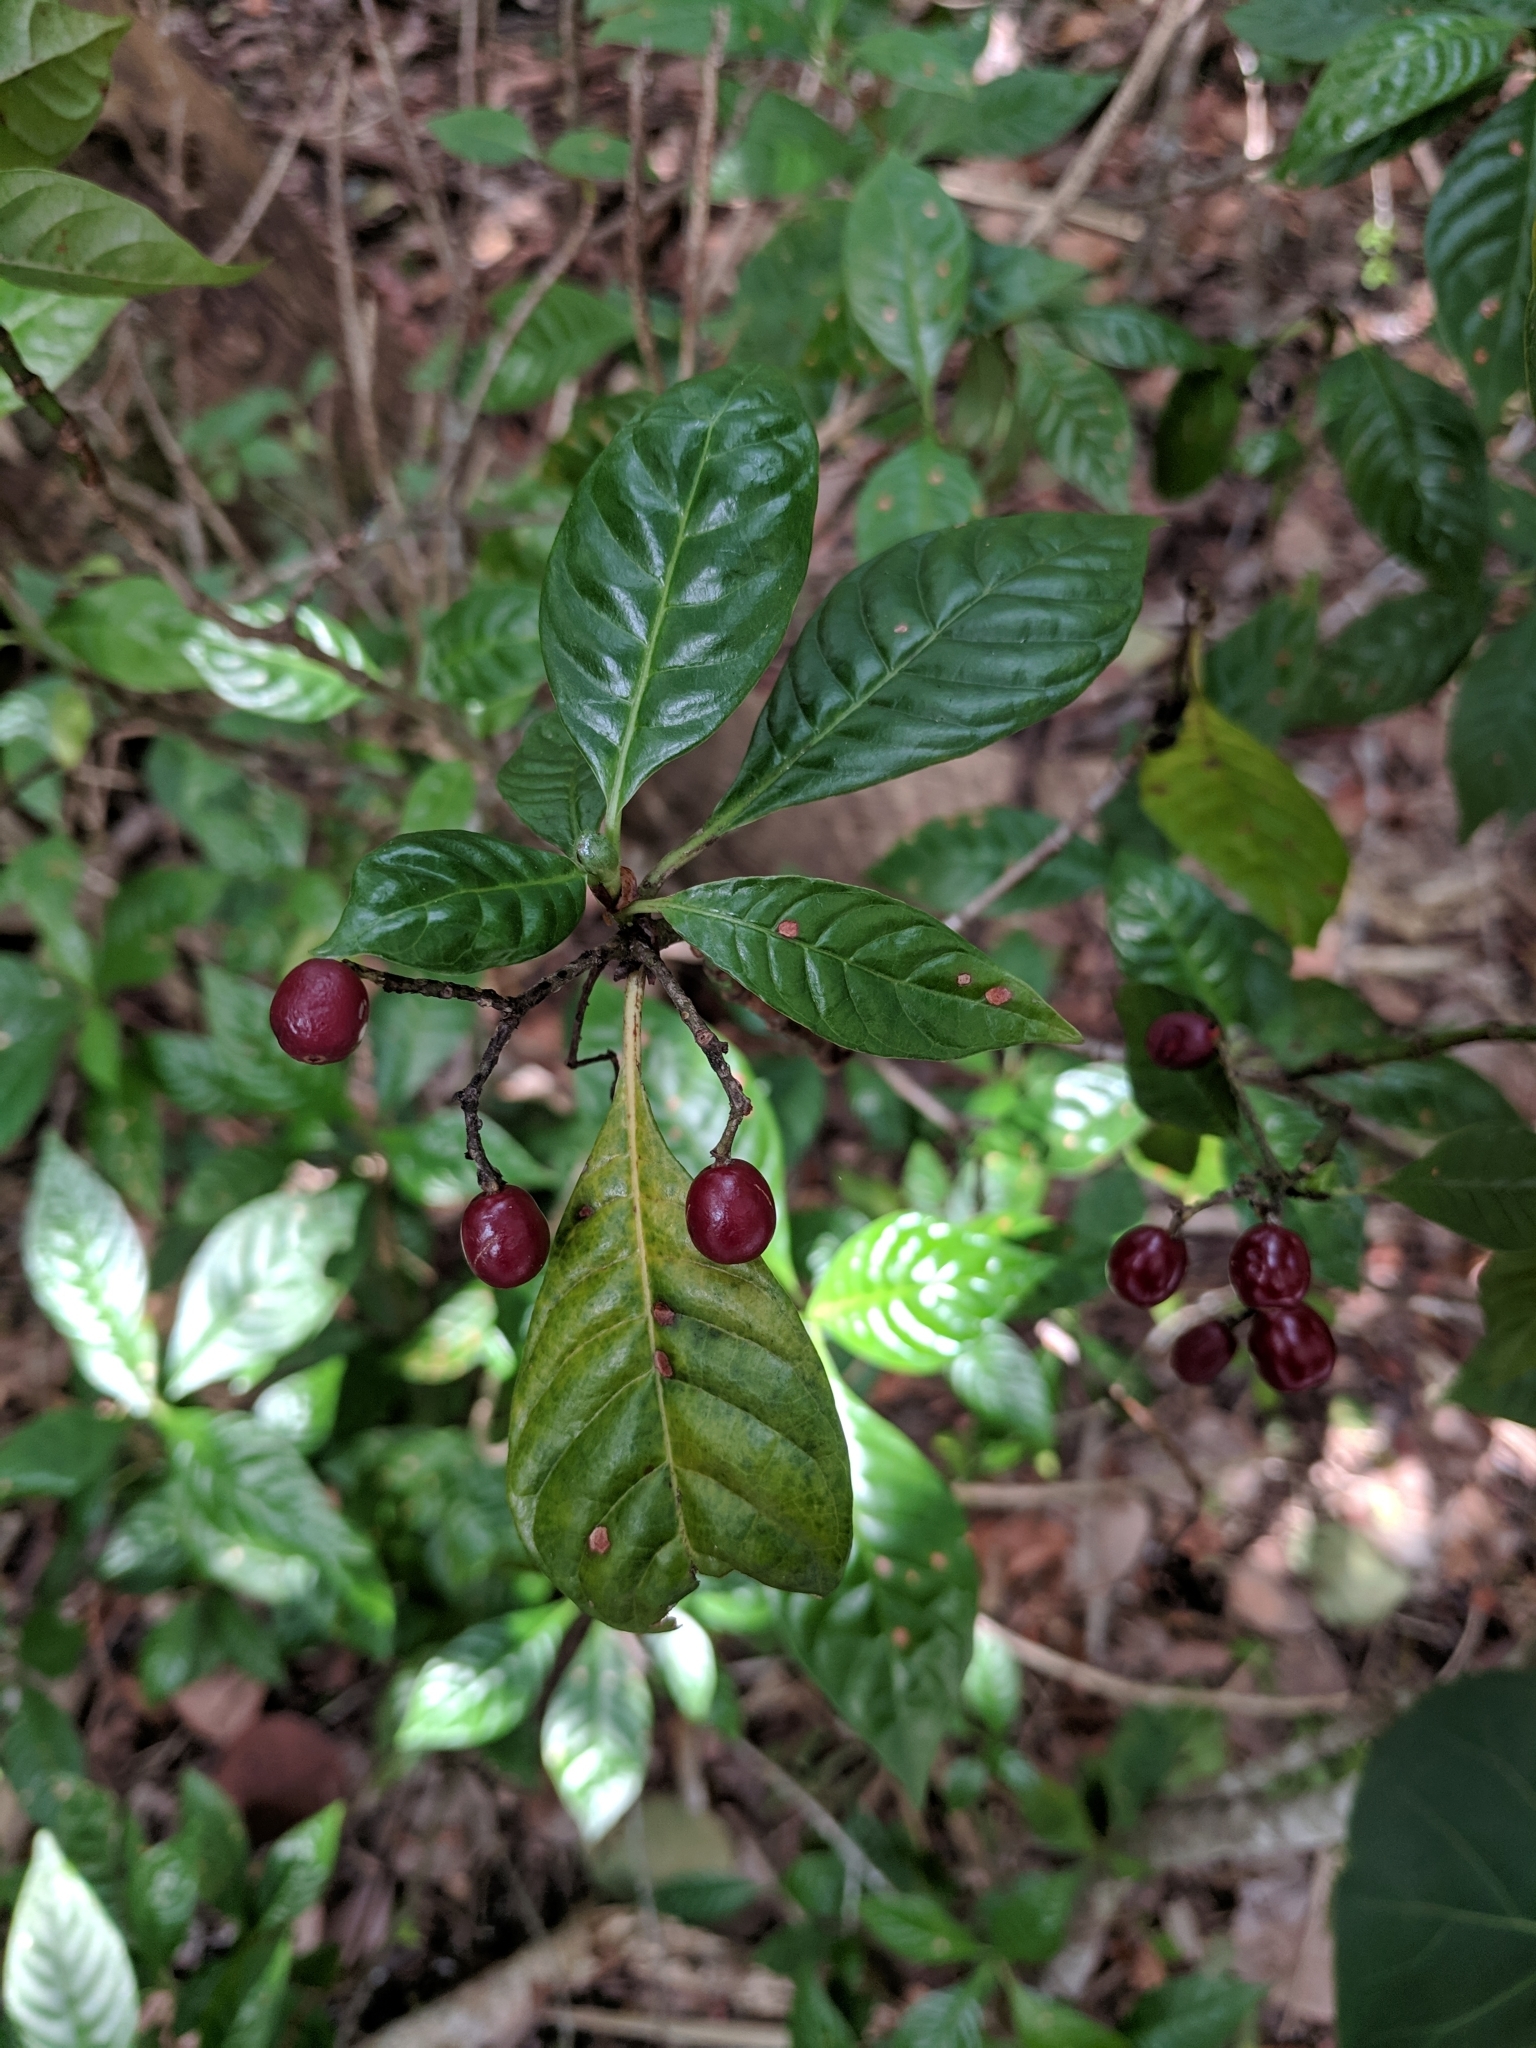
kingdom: Plantae
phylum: Tracheophyta
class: Magnoliopsida
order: Gentianales
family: Rubiaceae
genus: Psychotria
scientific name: Psychotria nervosa
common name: Bastard cankerberry
